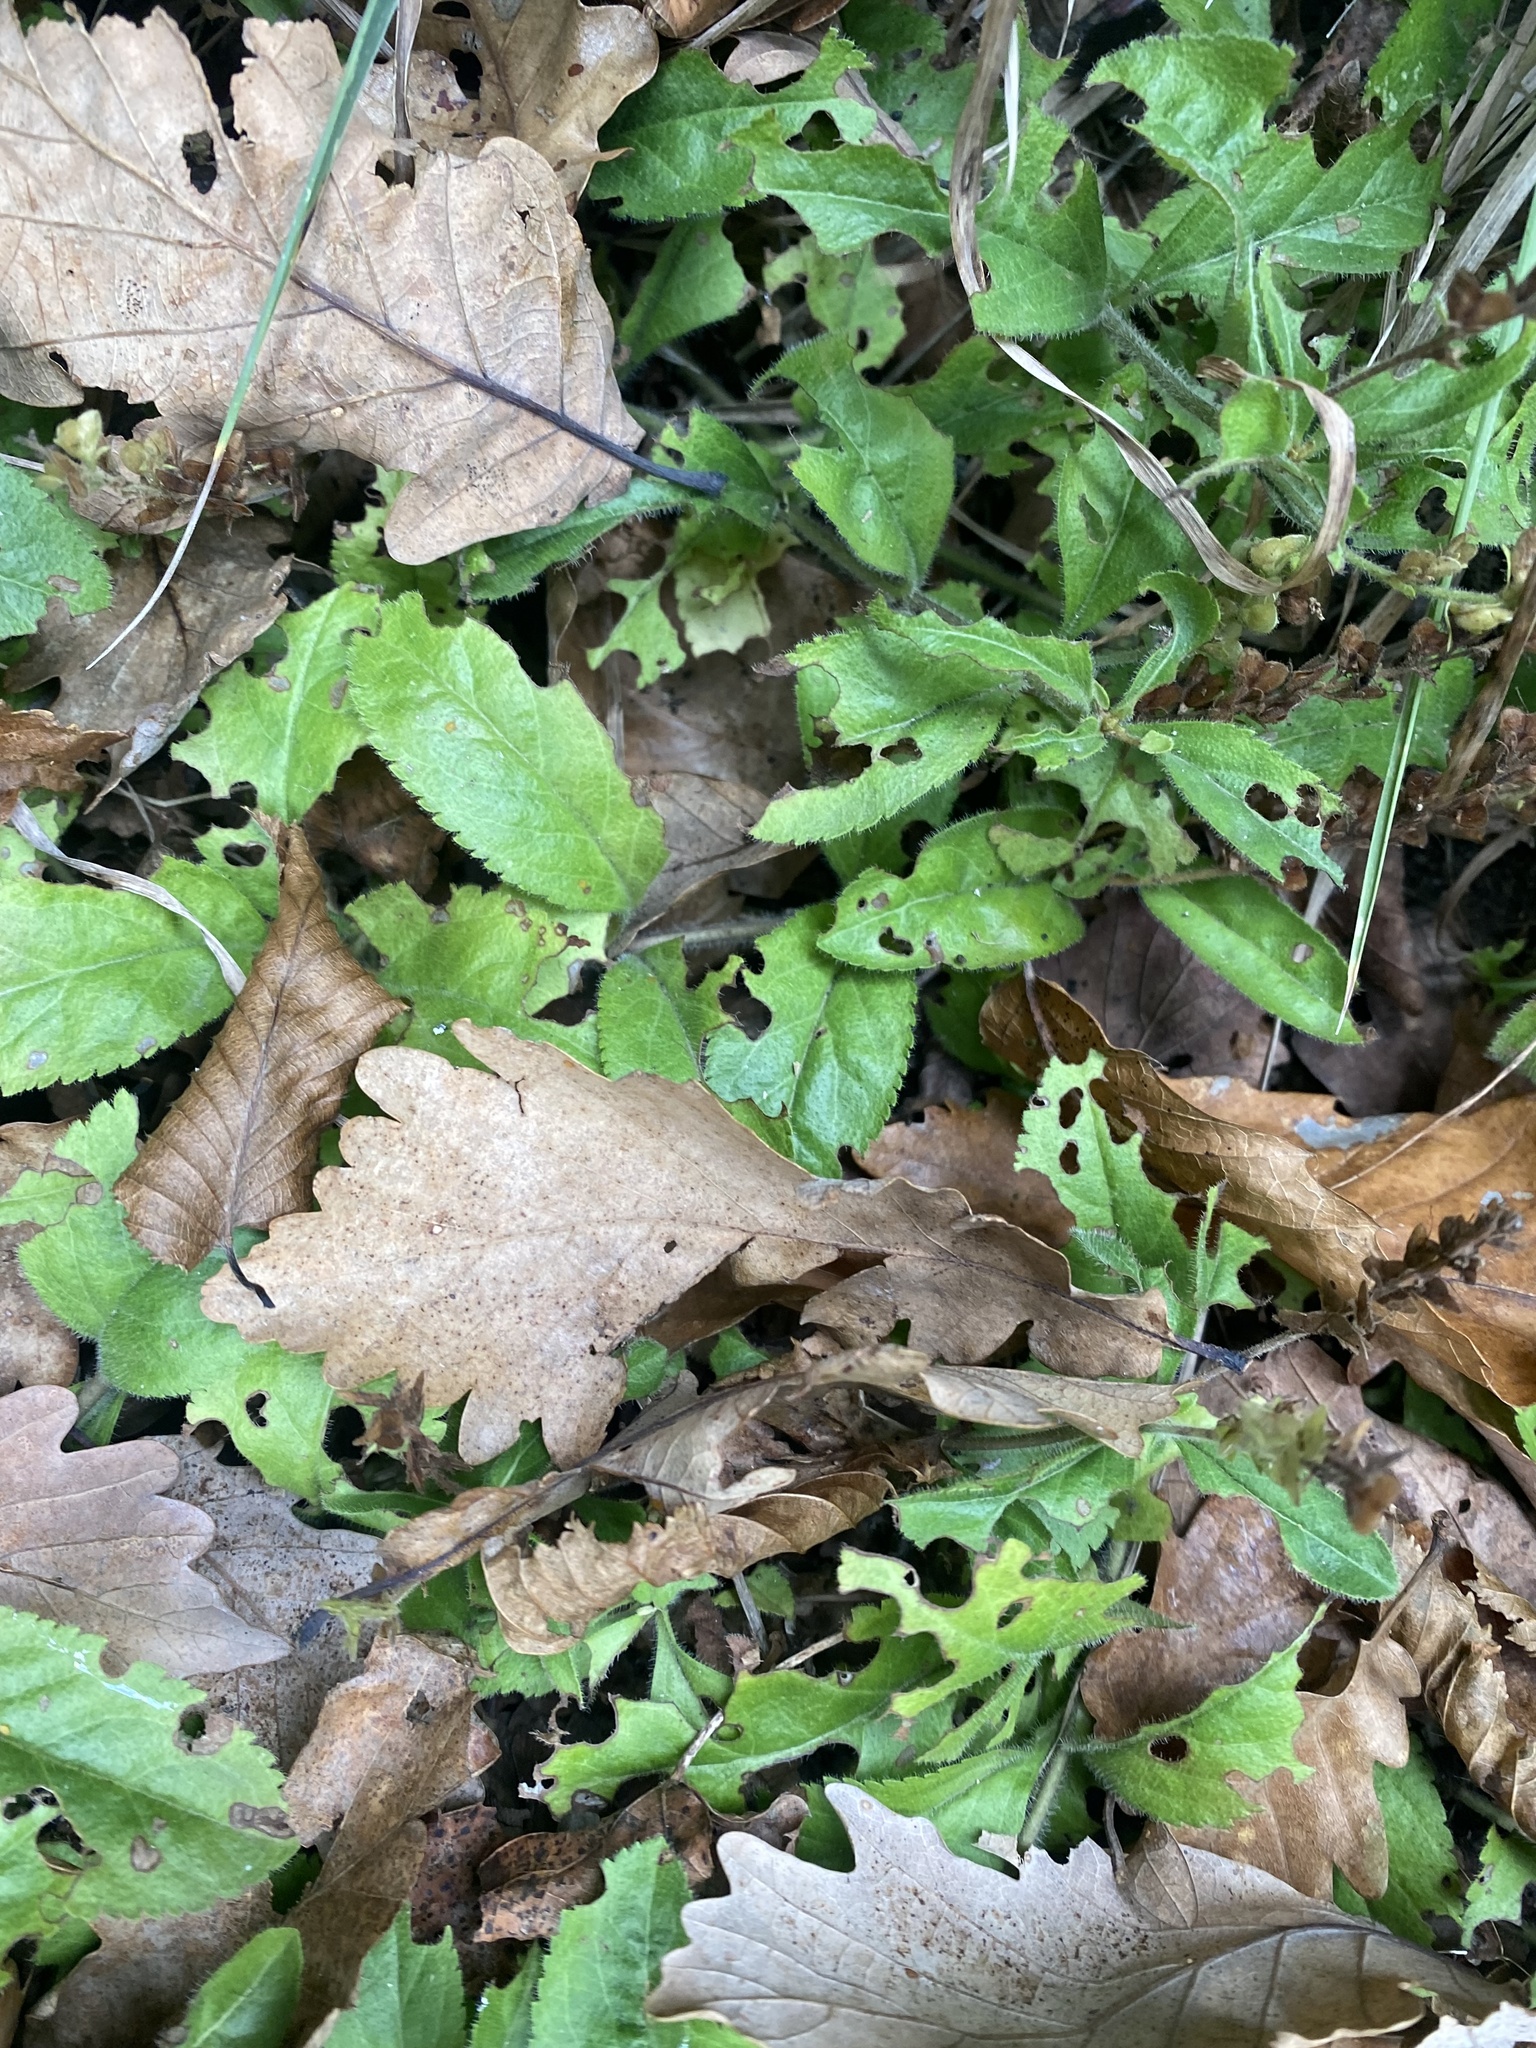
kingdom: Plantae
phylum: Tracheophyta
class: Magnoliopsida
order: Lamiales
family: Plantaginaceae
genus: Veronica
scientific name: Veronica officinalis
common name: Common speedwell
